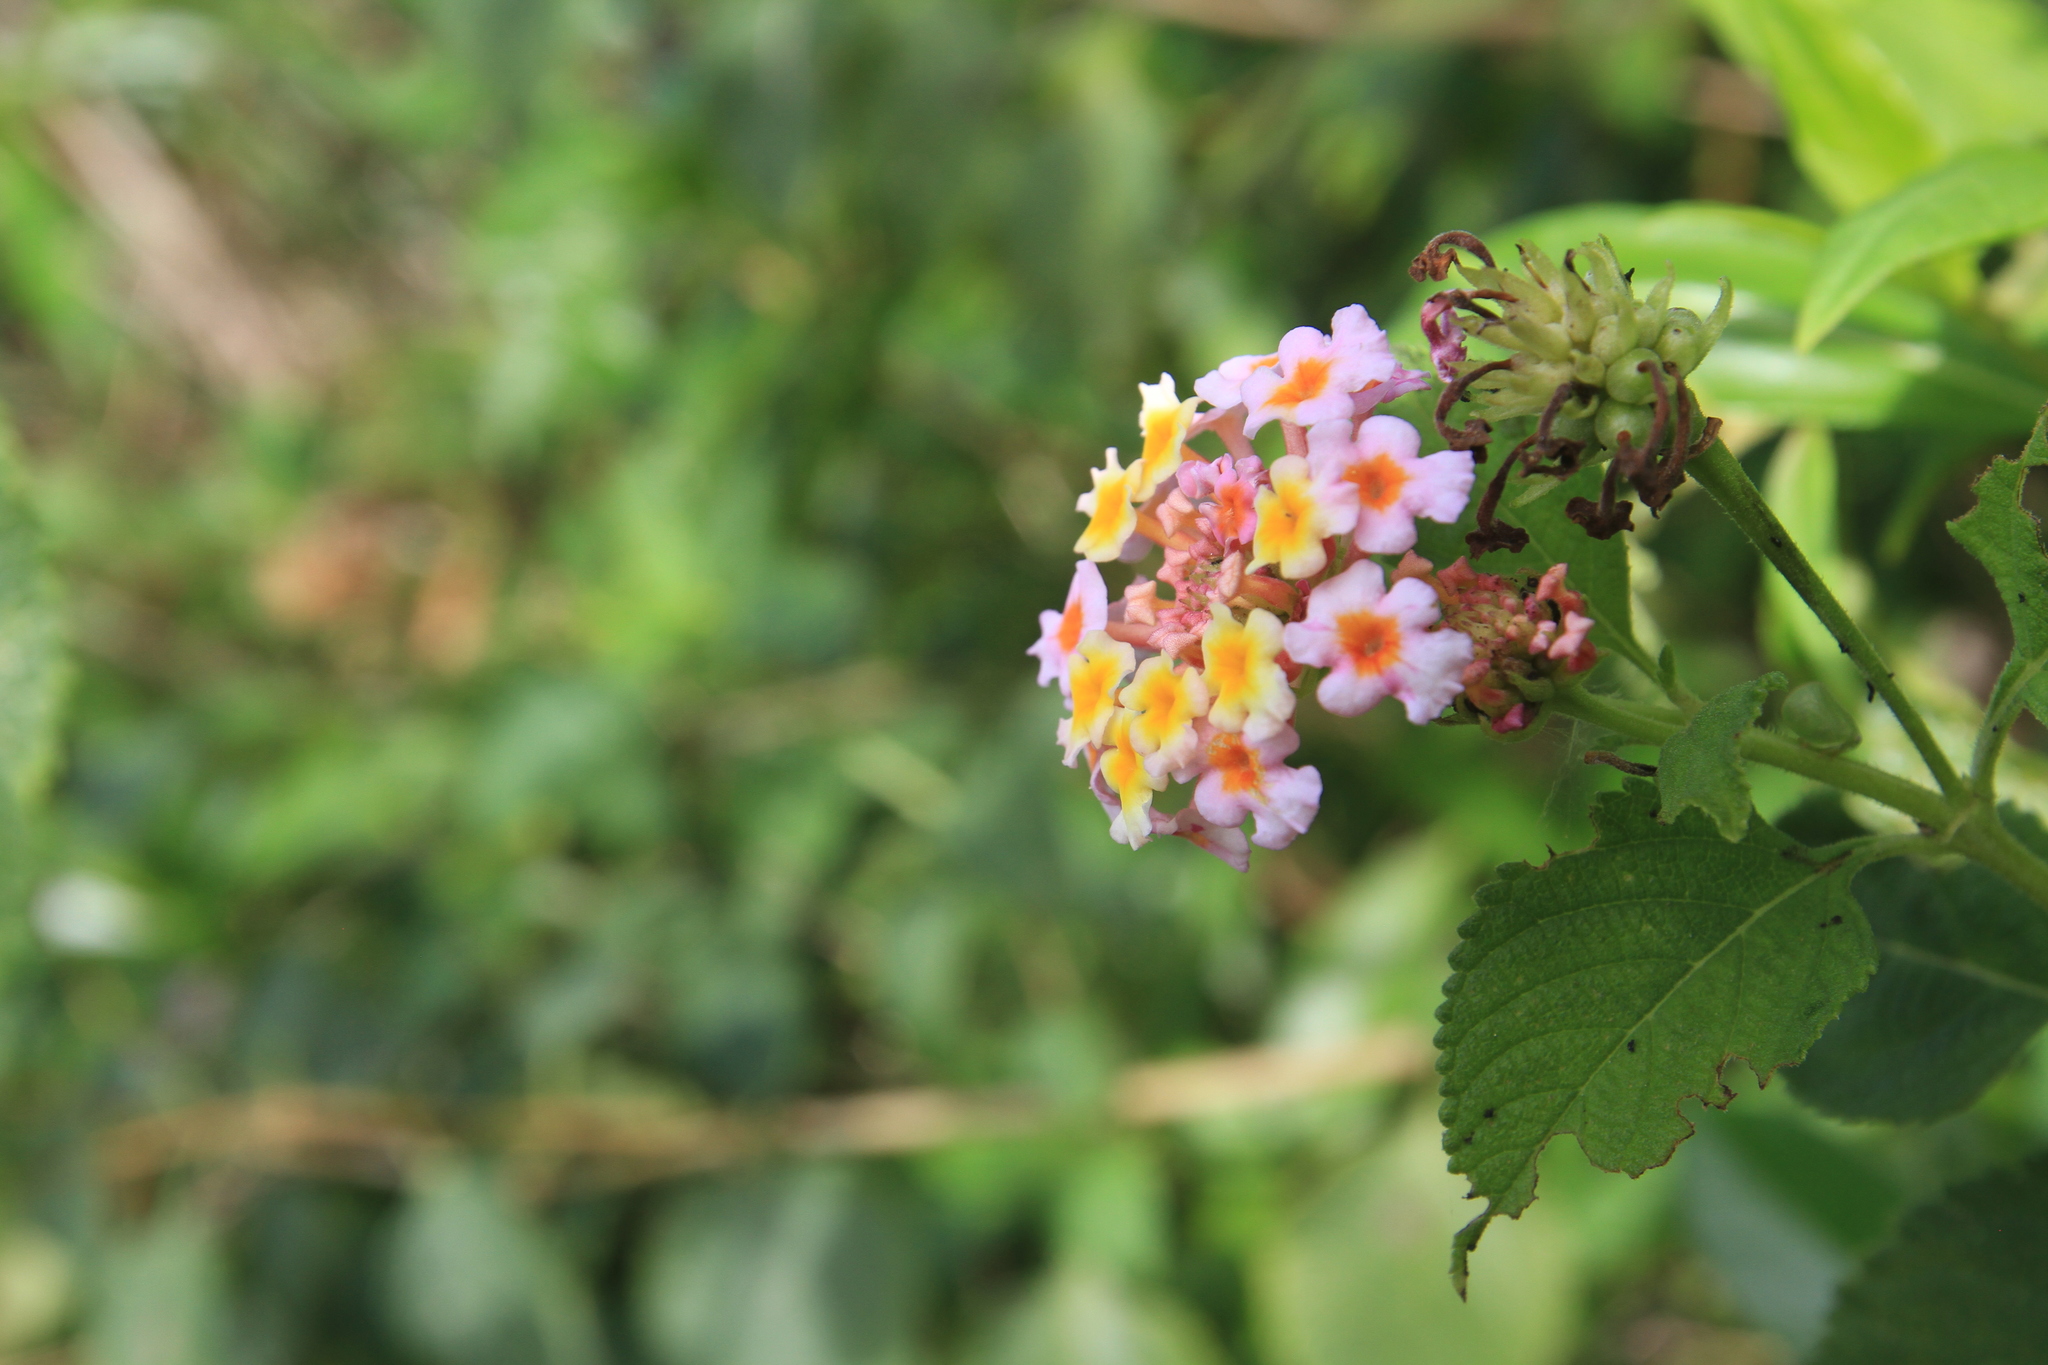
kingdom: Plantae
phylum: Tracheophyta
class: Magnoliopsida
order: Lamiales
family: Verbenaceae
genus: Lantana
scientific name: Lantana camara
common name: Lantana
